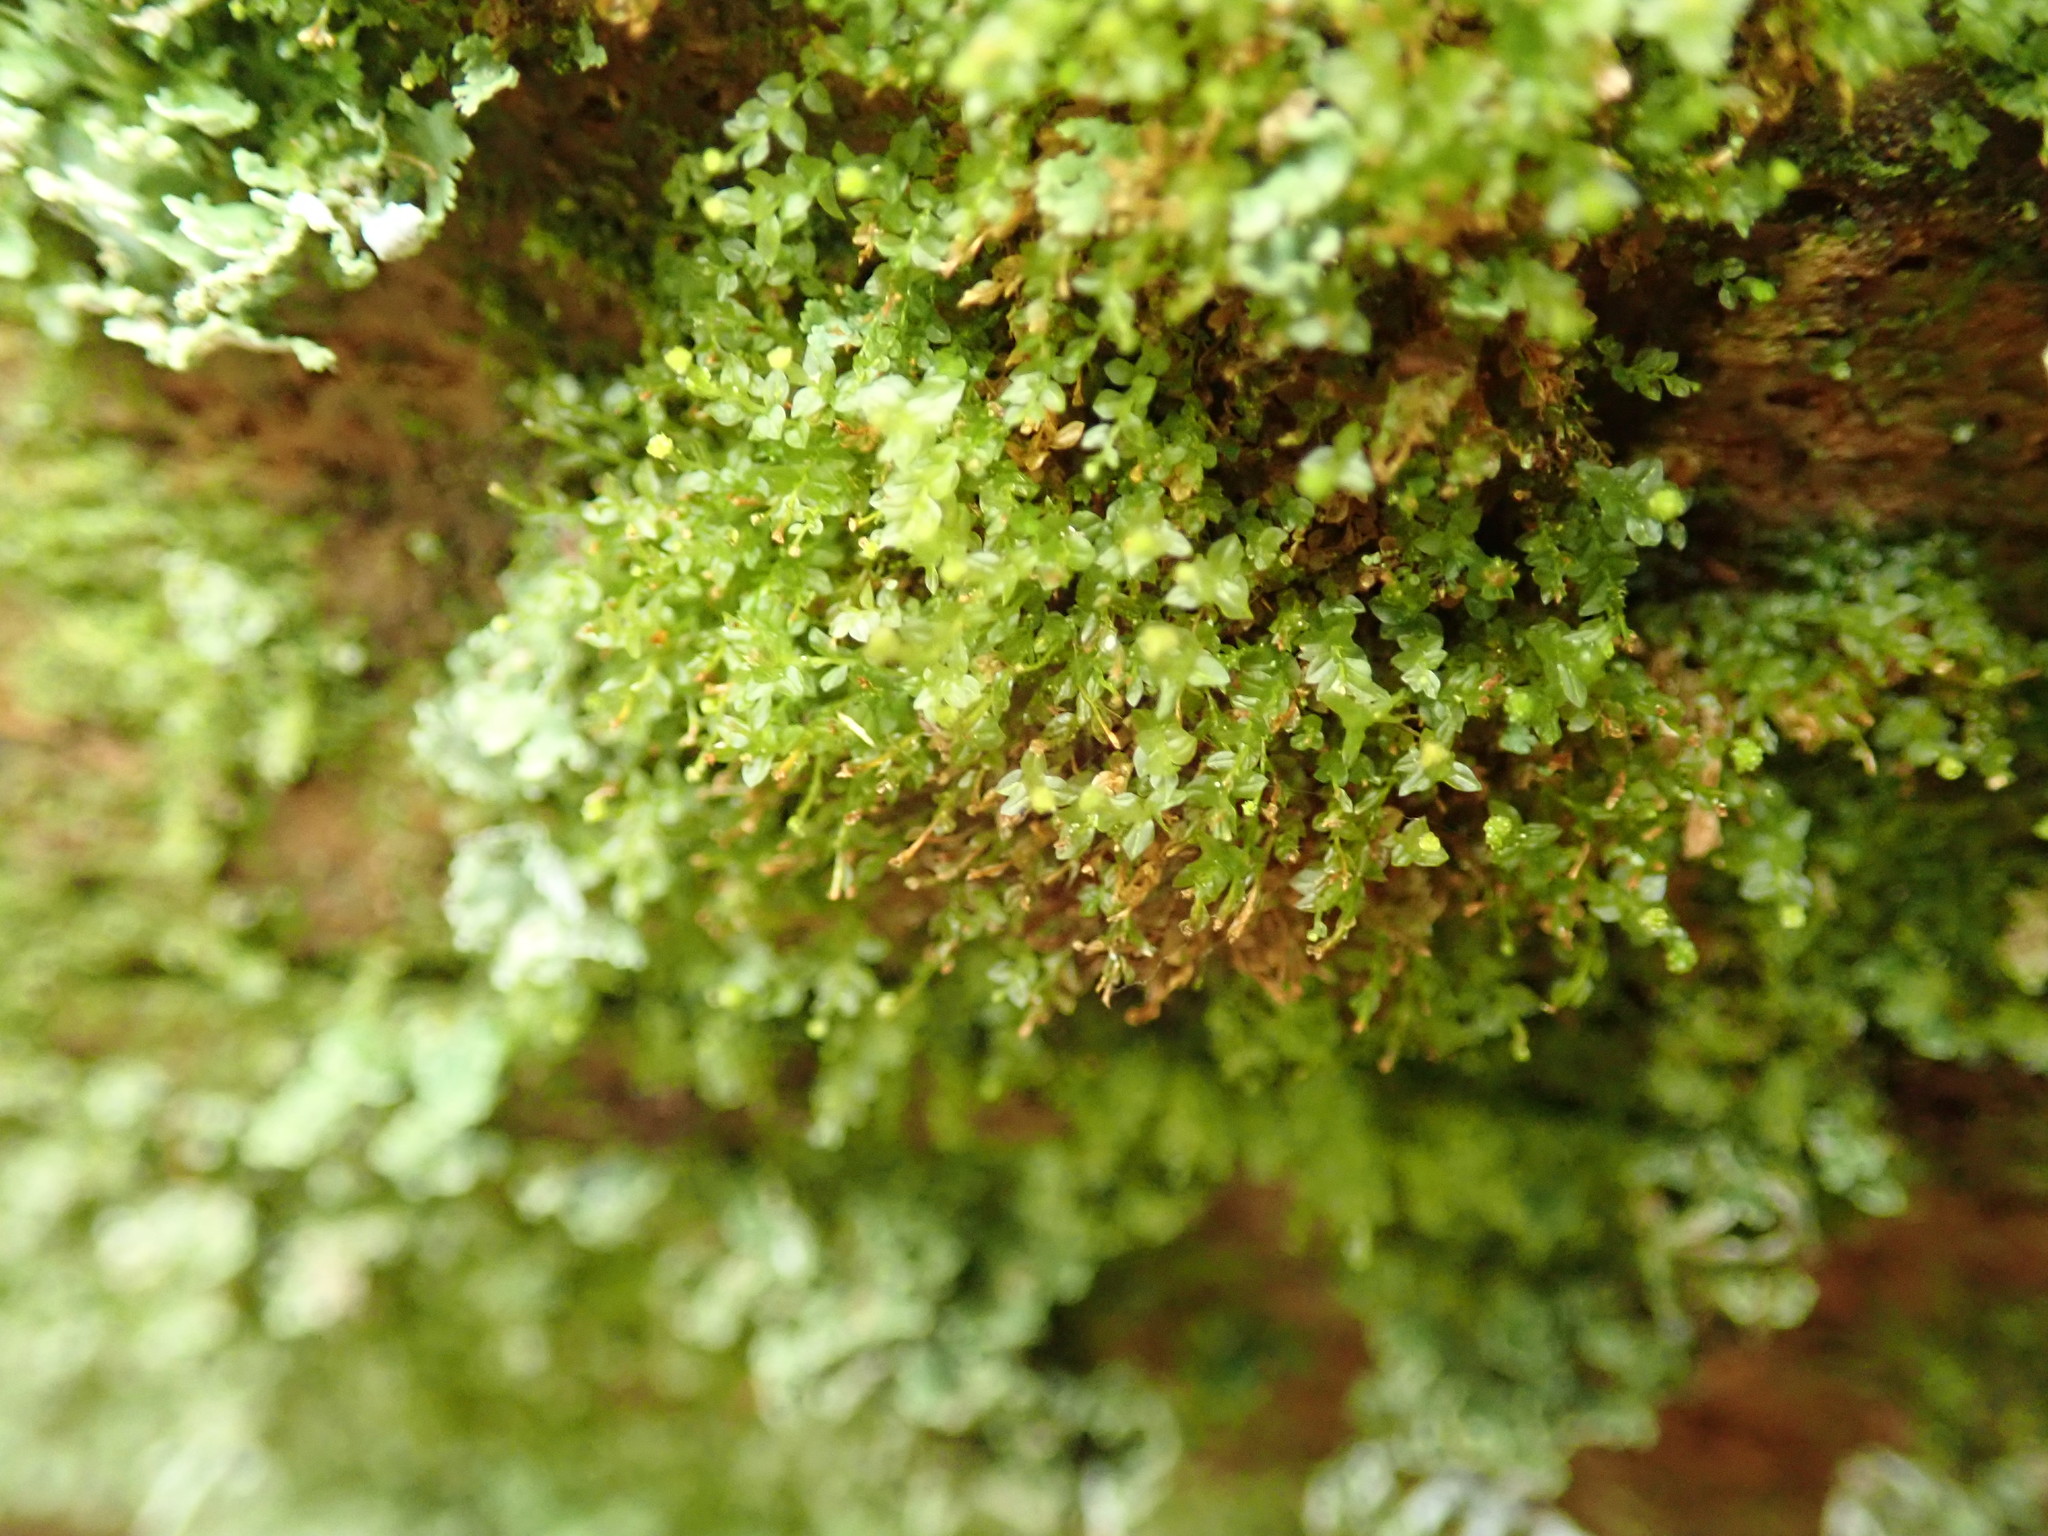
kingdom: Plantae
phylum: Bryophyta
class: Polytrichopsida
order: Tetraphidales
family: Tetraphidaceae
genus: Tetraphis
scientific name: Tetraphis pellucida
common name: Common four-toothed moss
